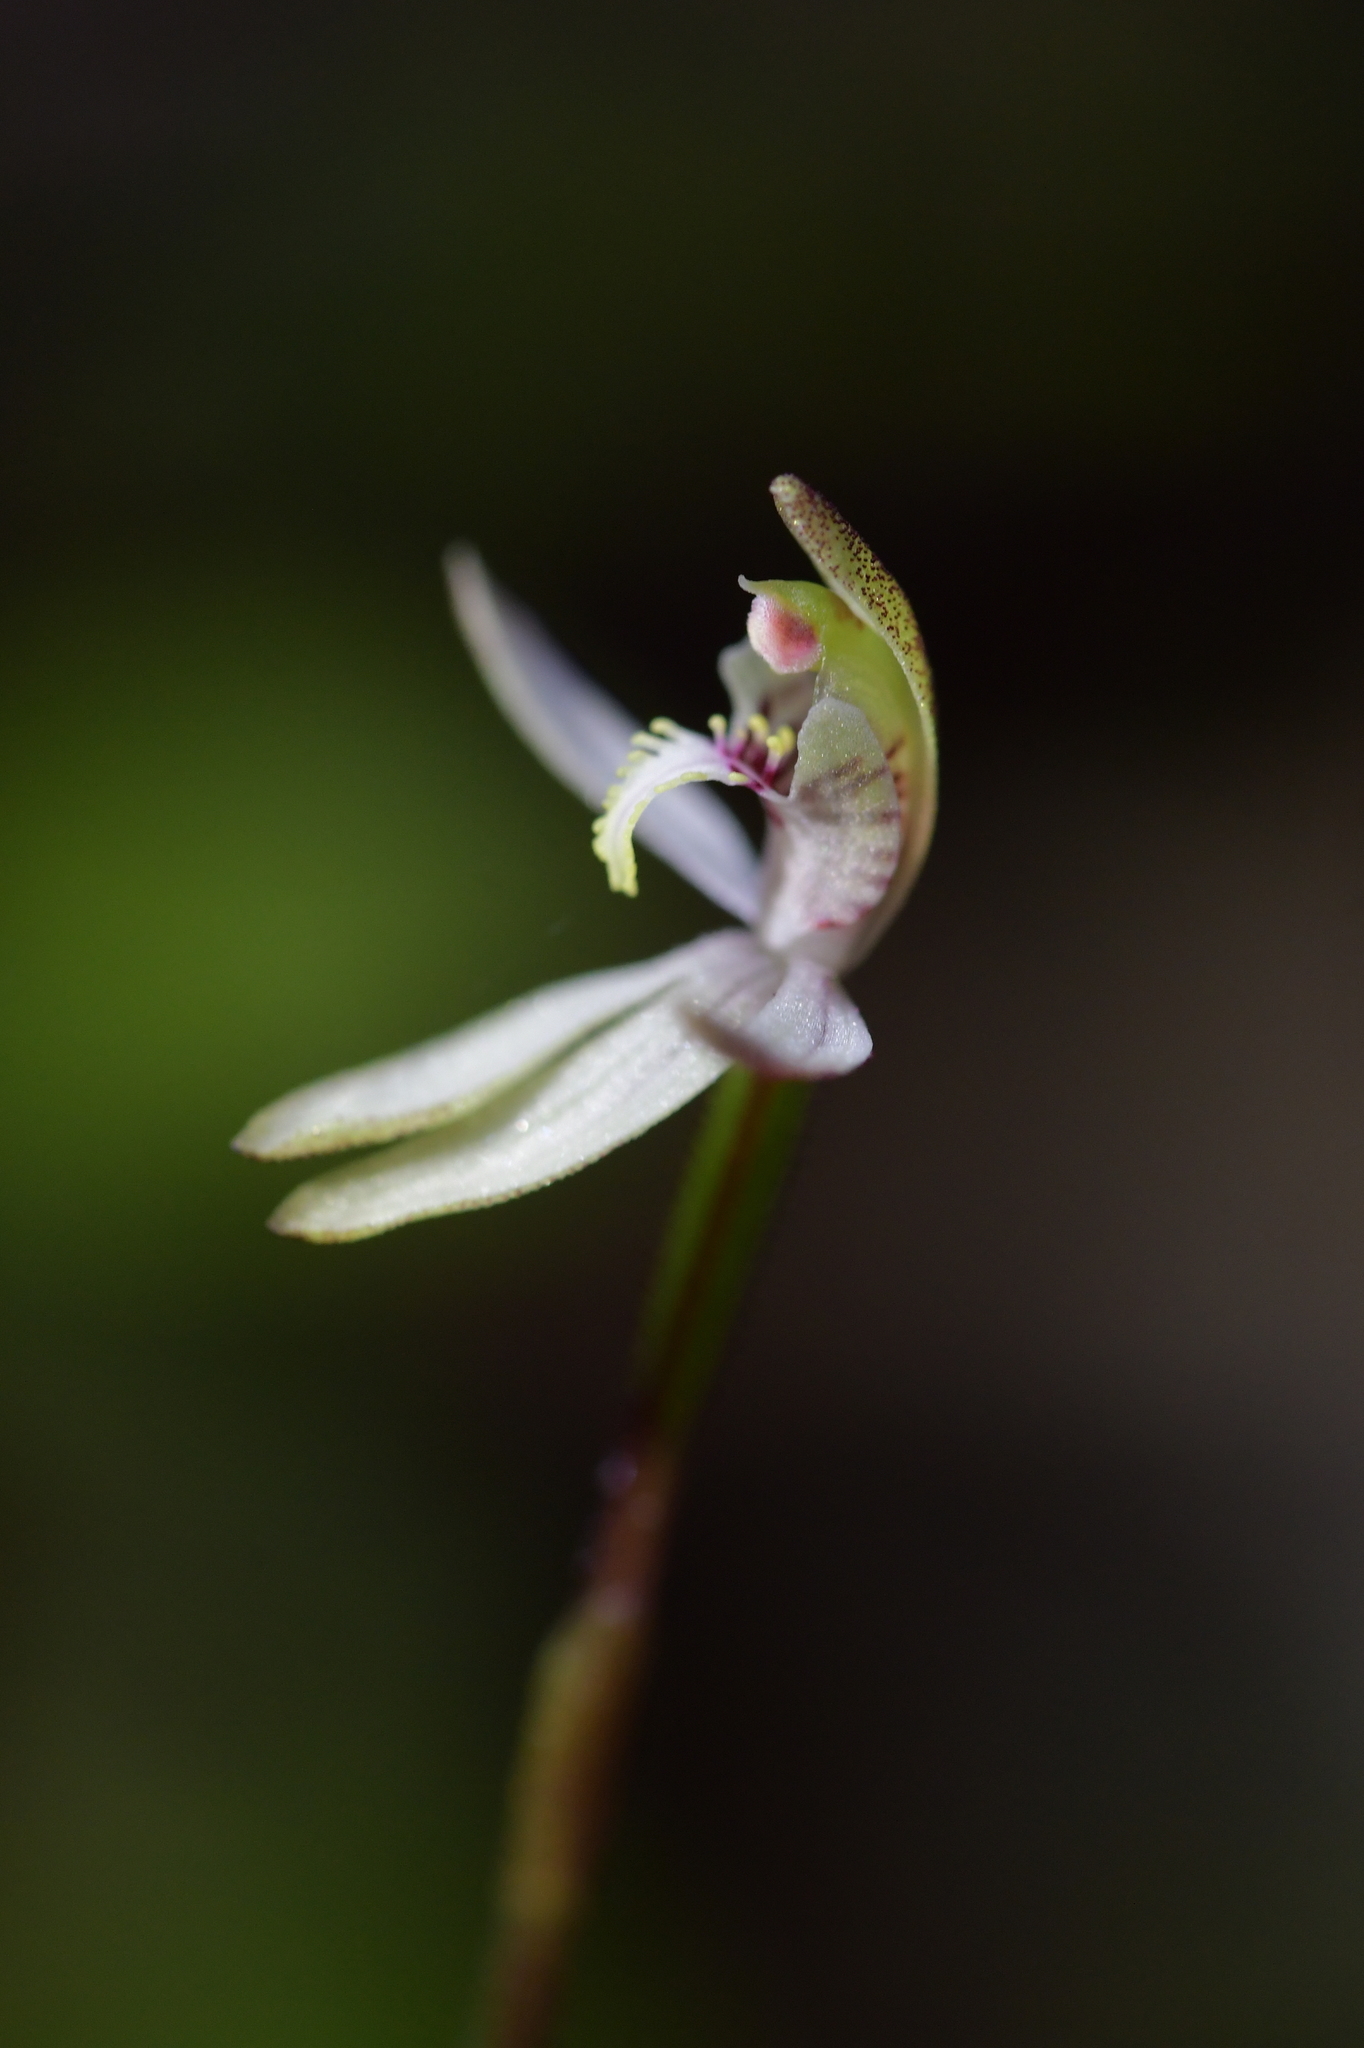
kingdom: Plantae
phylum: Tracheophyta
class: Liliopsida
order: Asparagales
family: Orchidaceae
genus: Caladenia
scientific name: Caladenia chlorostyla
